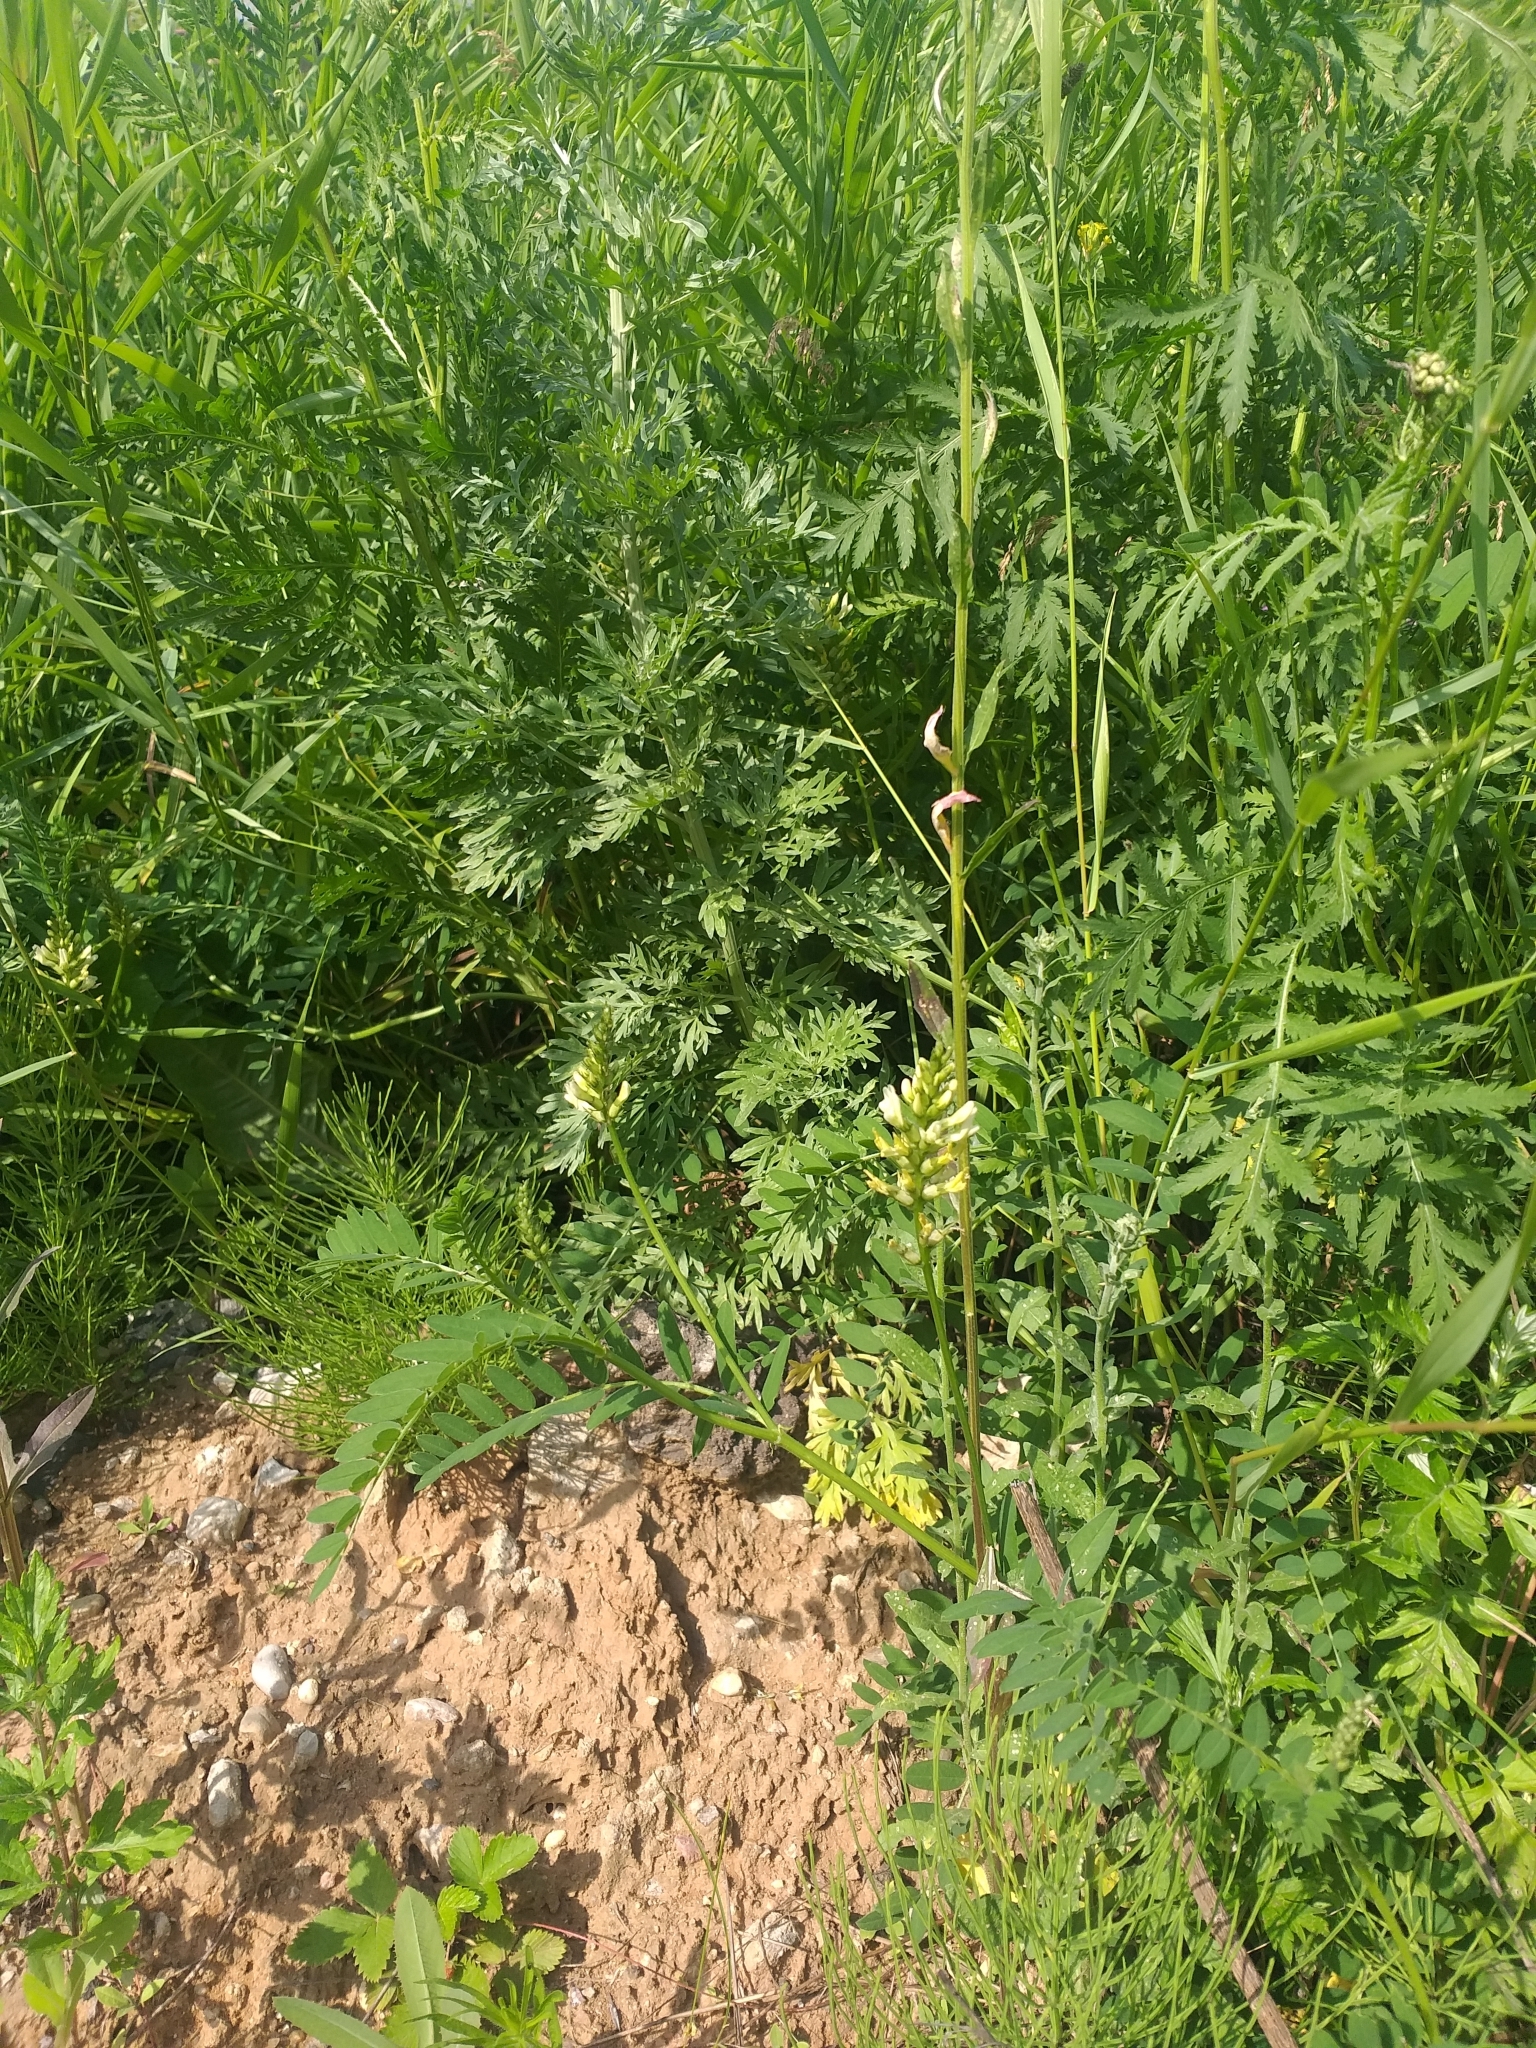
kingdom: Plantae
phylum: Tracheophyta
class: Magnoliopsida
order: Fabales
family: Fabaceae
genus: Astragalus
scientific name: Astragalus cicer
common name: Chick-pea milk-vetch
